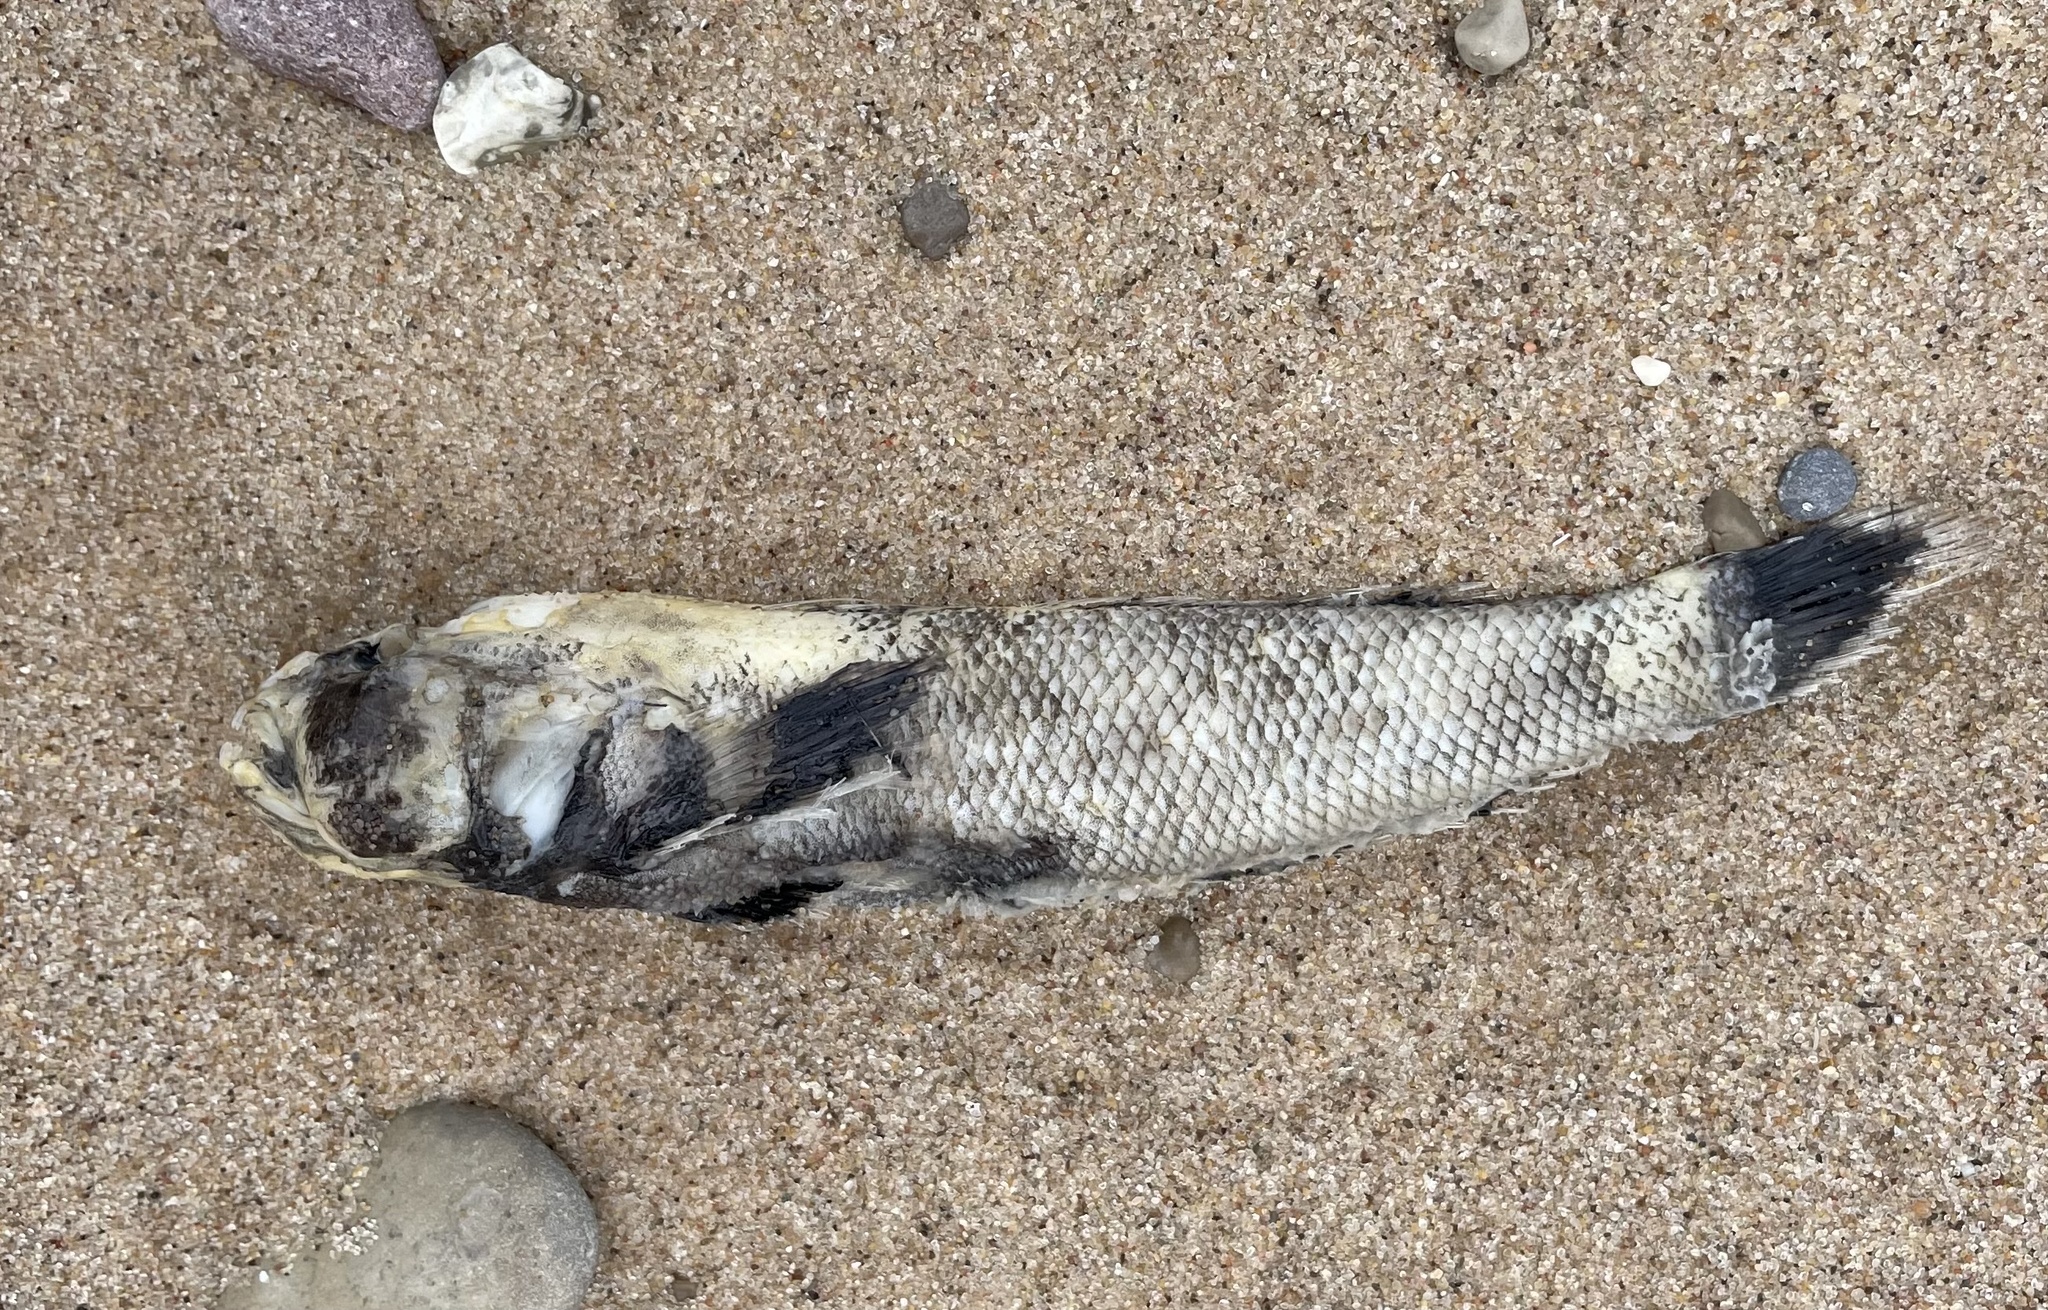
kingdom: Animalia
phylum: Chordata
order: Perciformes
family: Gobiidae
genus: Neogobius
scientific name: Neogobius melanostomus
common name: Round goby
